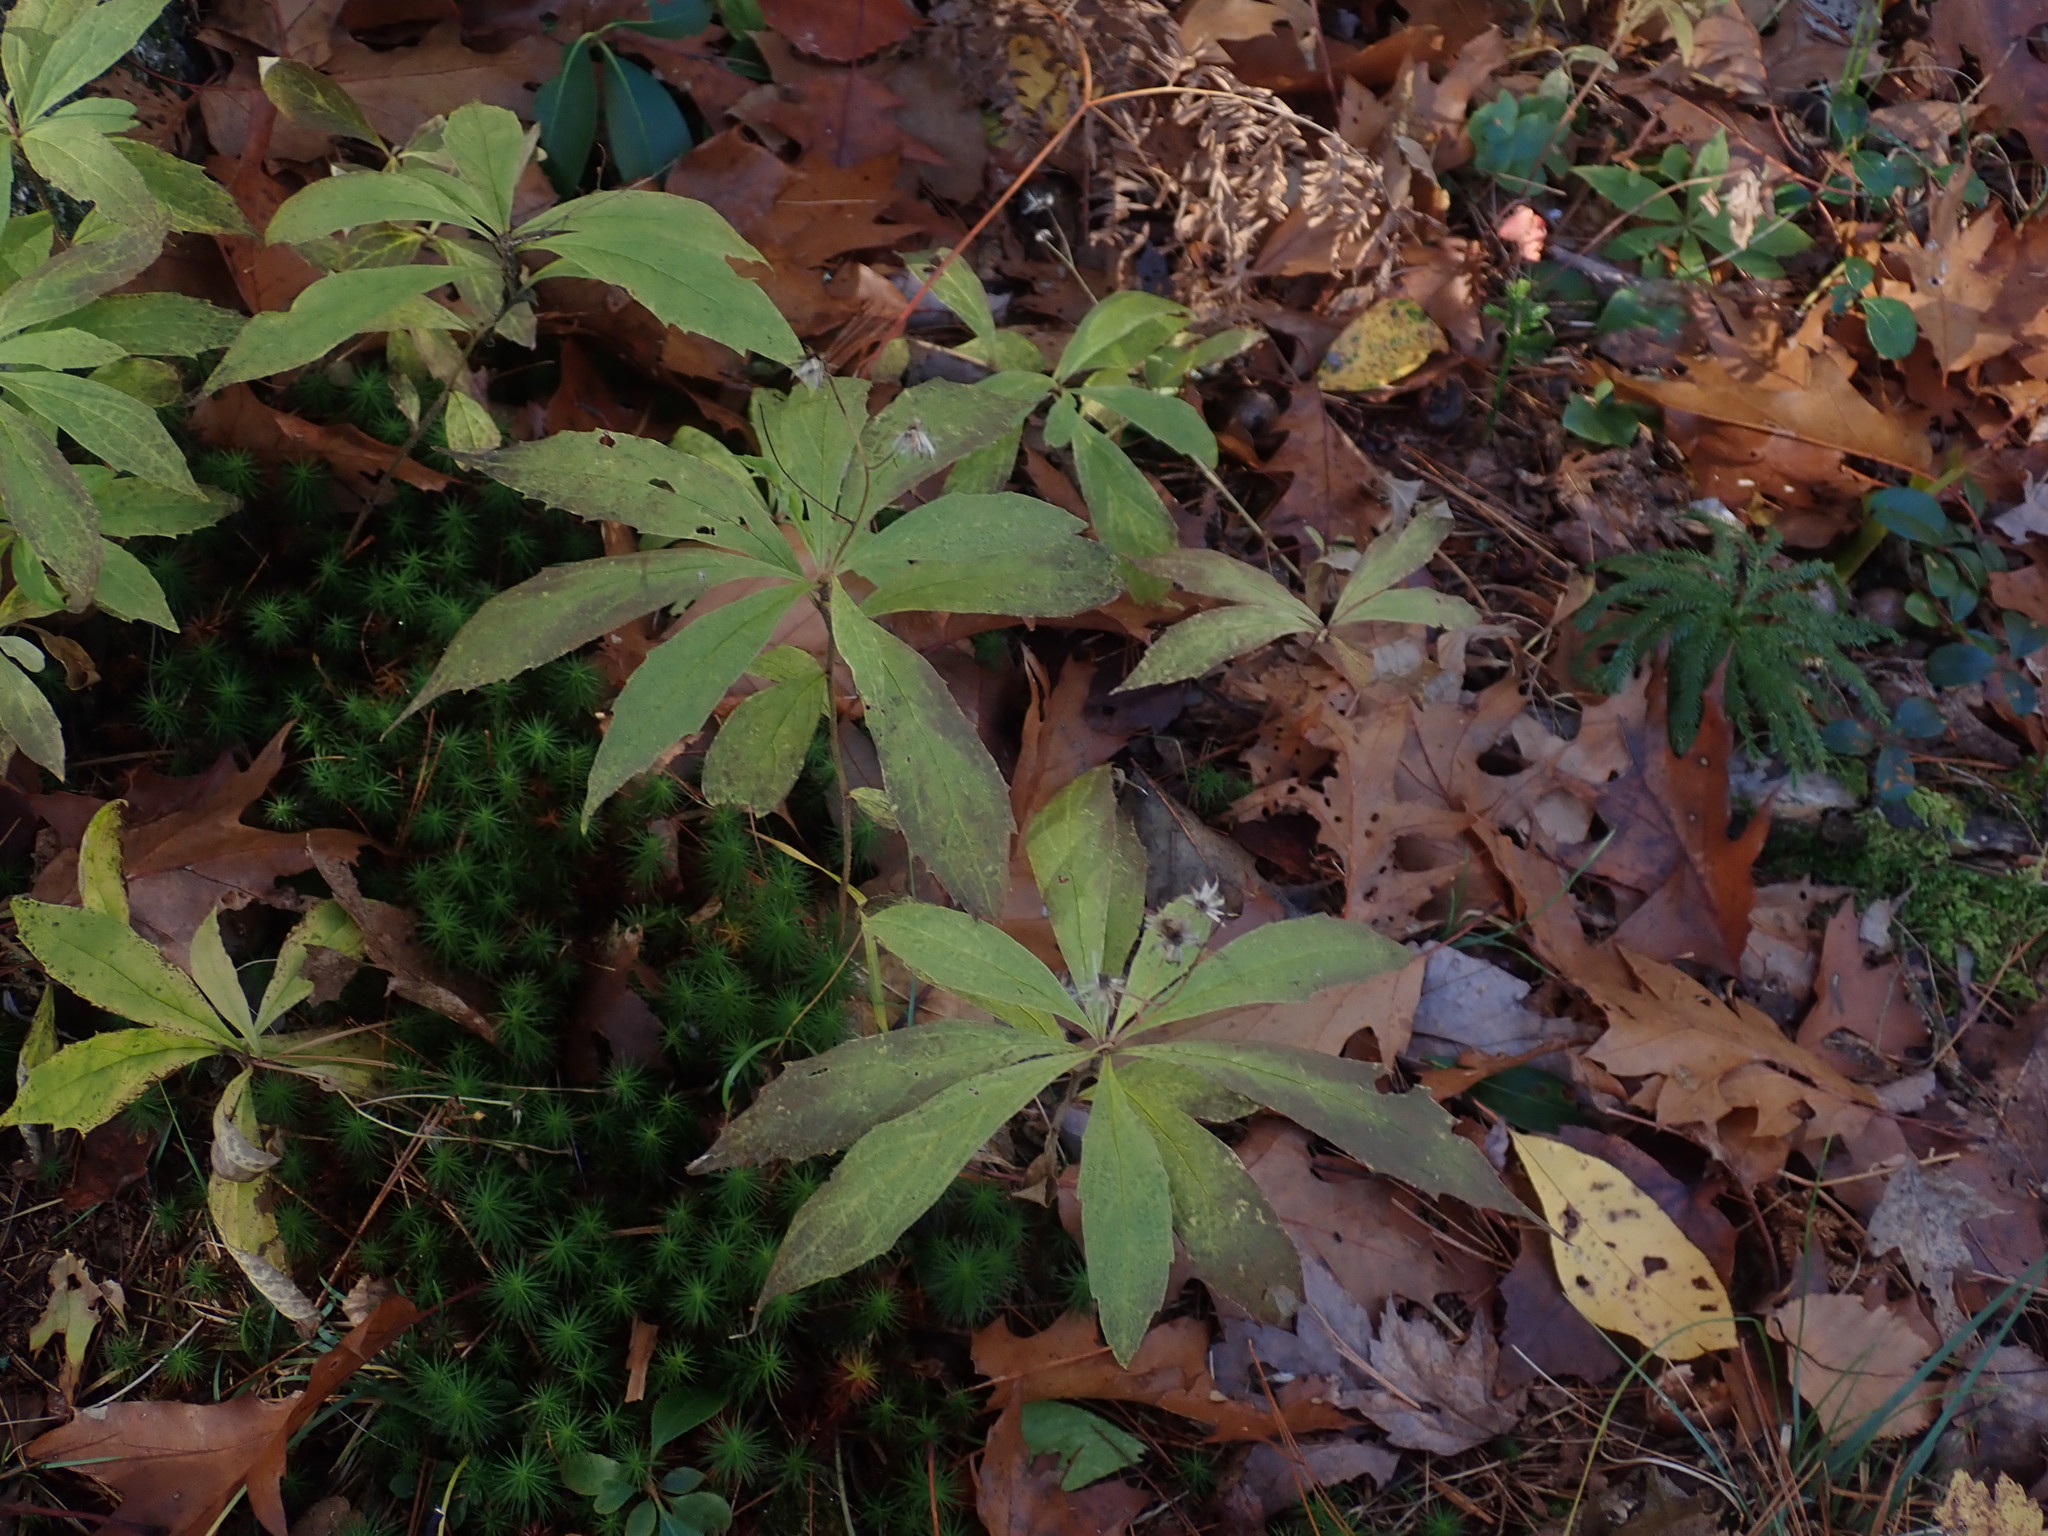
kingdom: Plantae
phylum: Tracheophyta
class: Magnoliopsida
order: Asterales
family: Asteraceae
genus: Oclemena
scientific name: Oclemena acuminata
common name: Mountain aster
